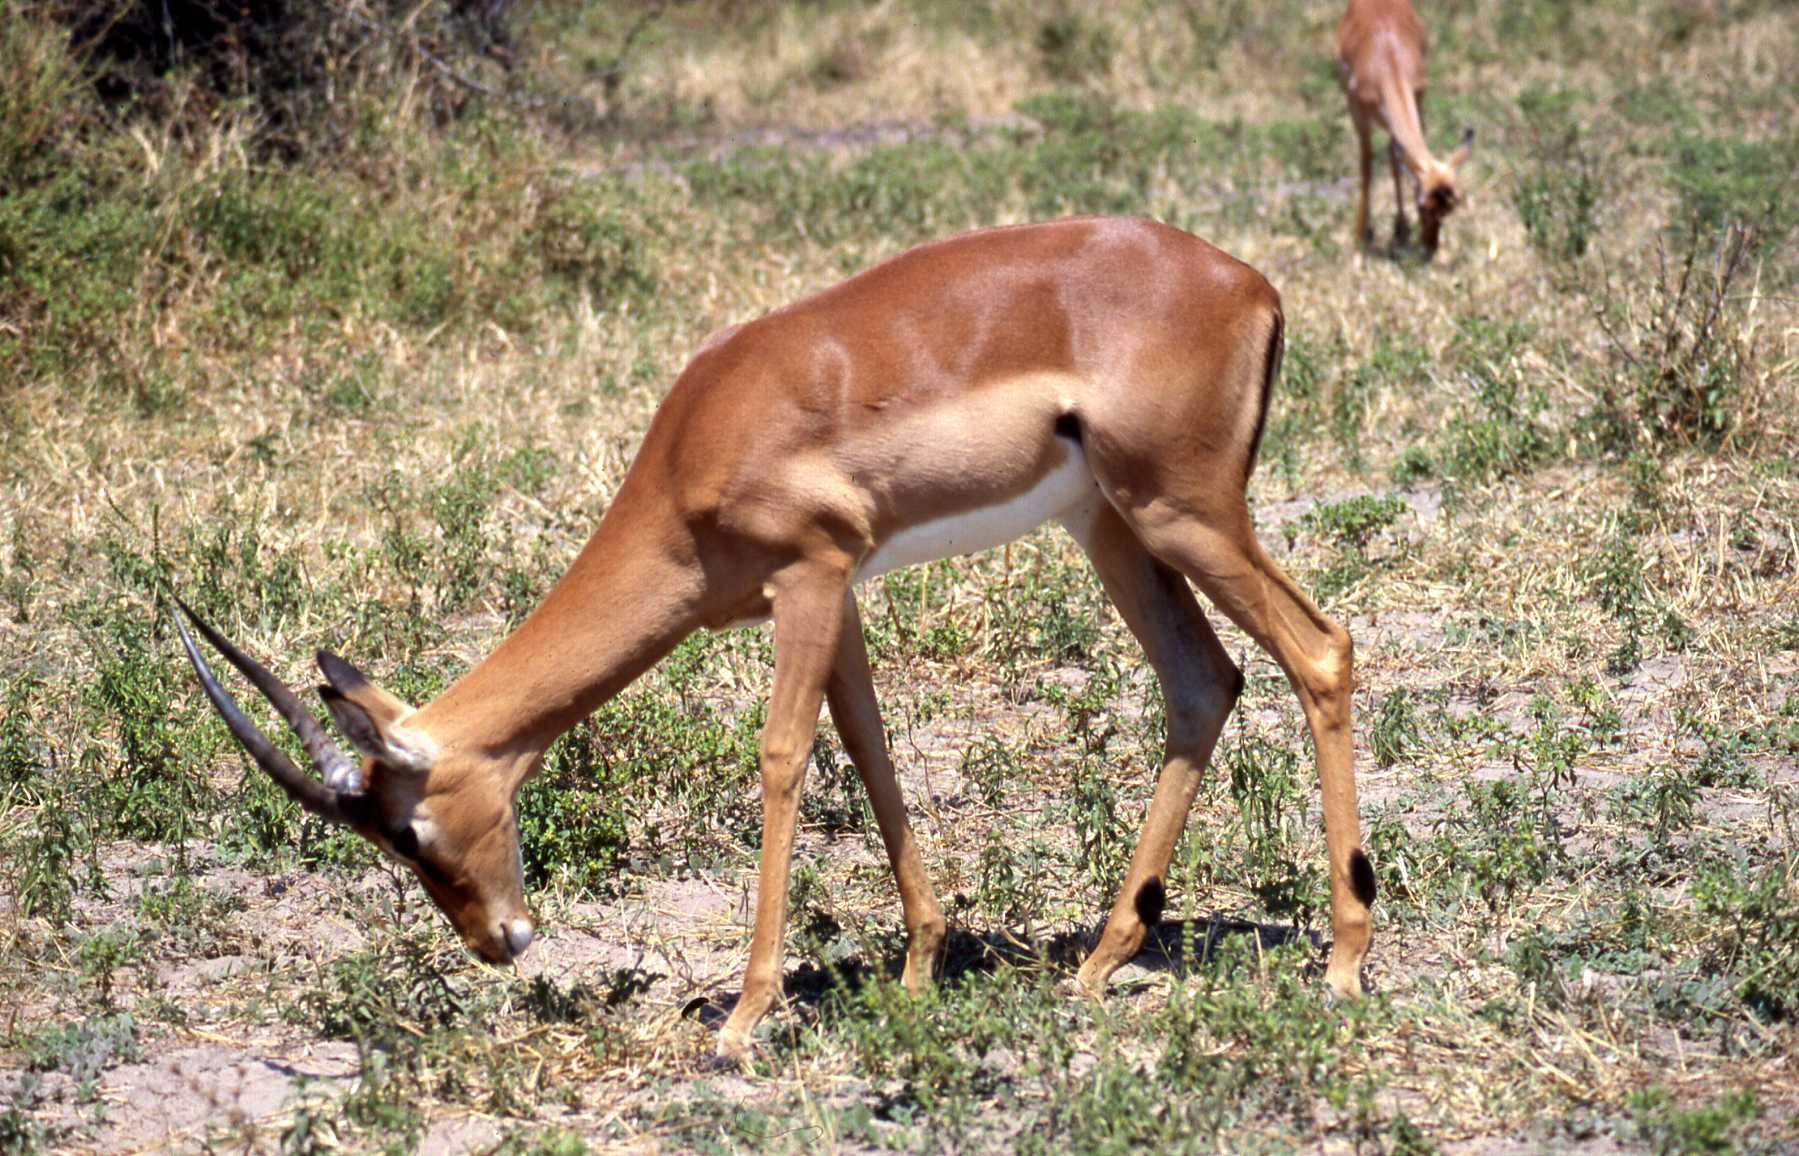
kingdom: Animalia
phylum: Chordata
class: Mammalia
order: Artiodactyla
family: Bovidae
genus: Aepyceros
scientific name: Aepyceros melampus
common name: Impala
